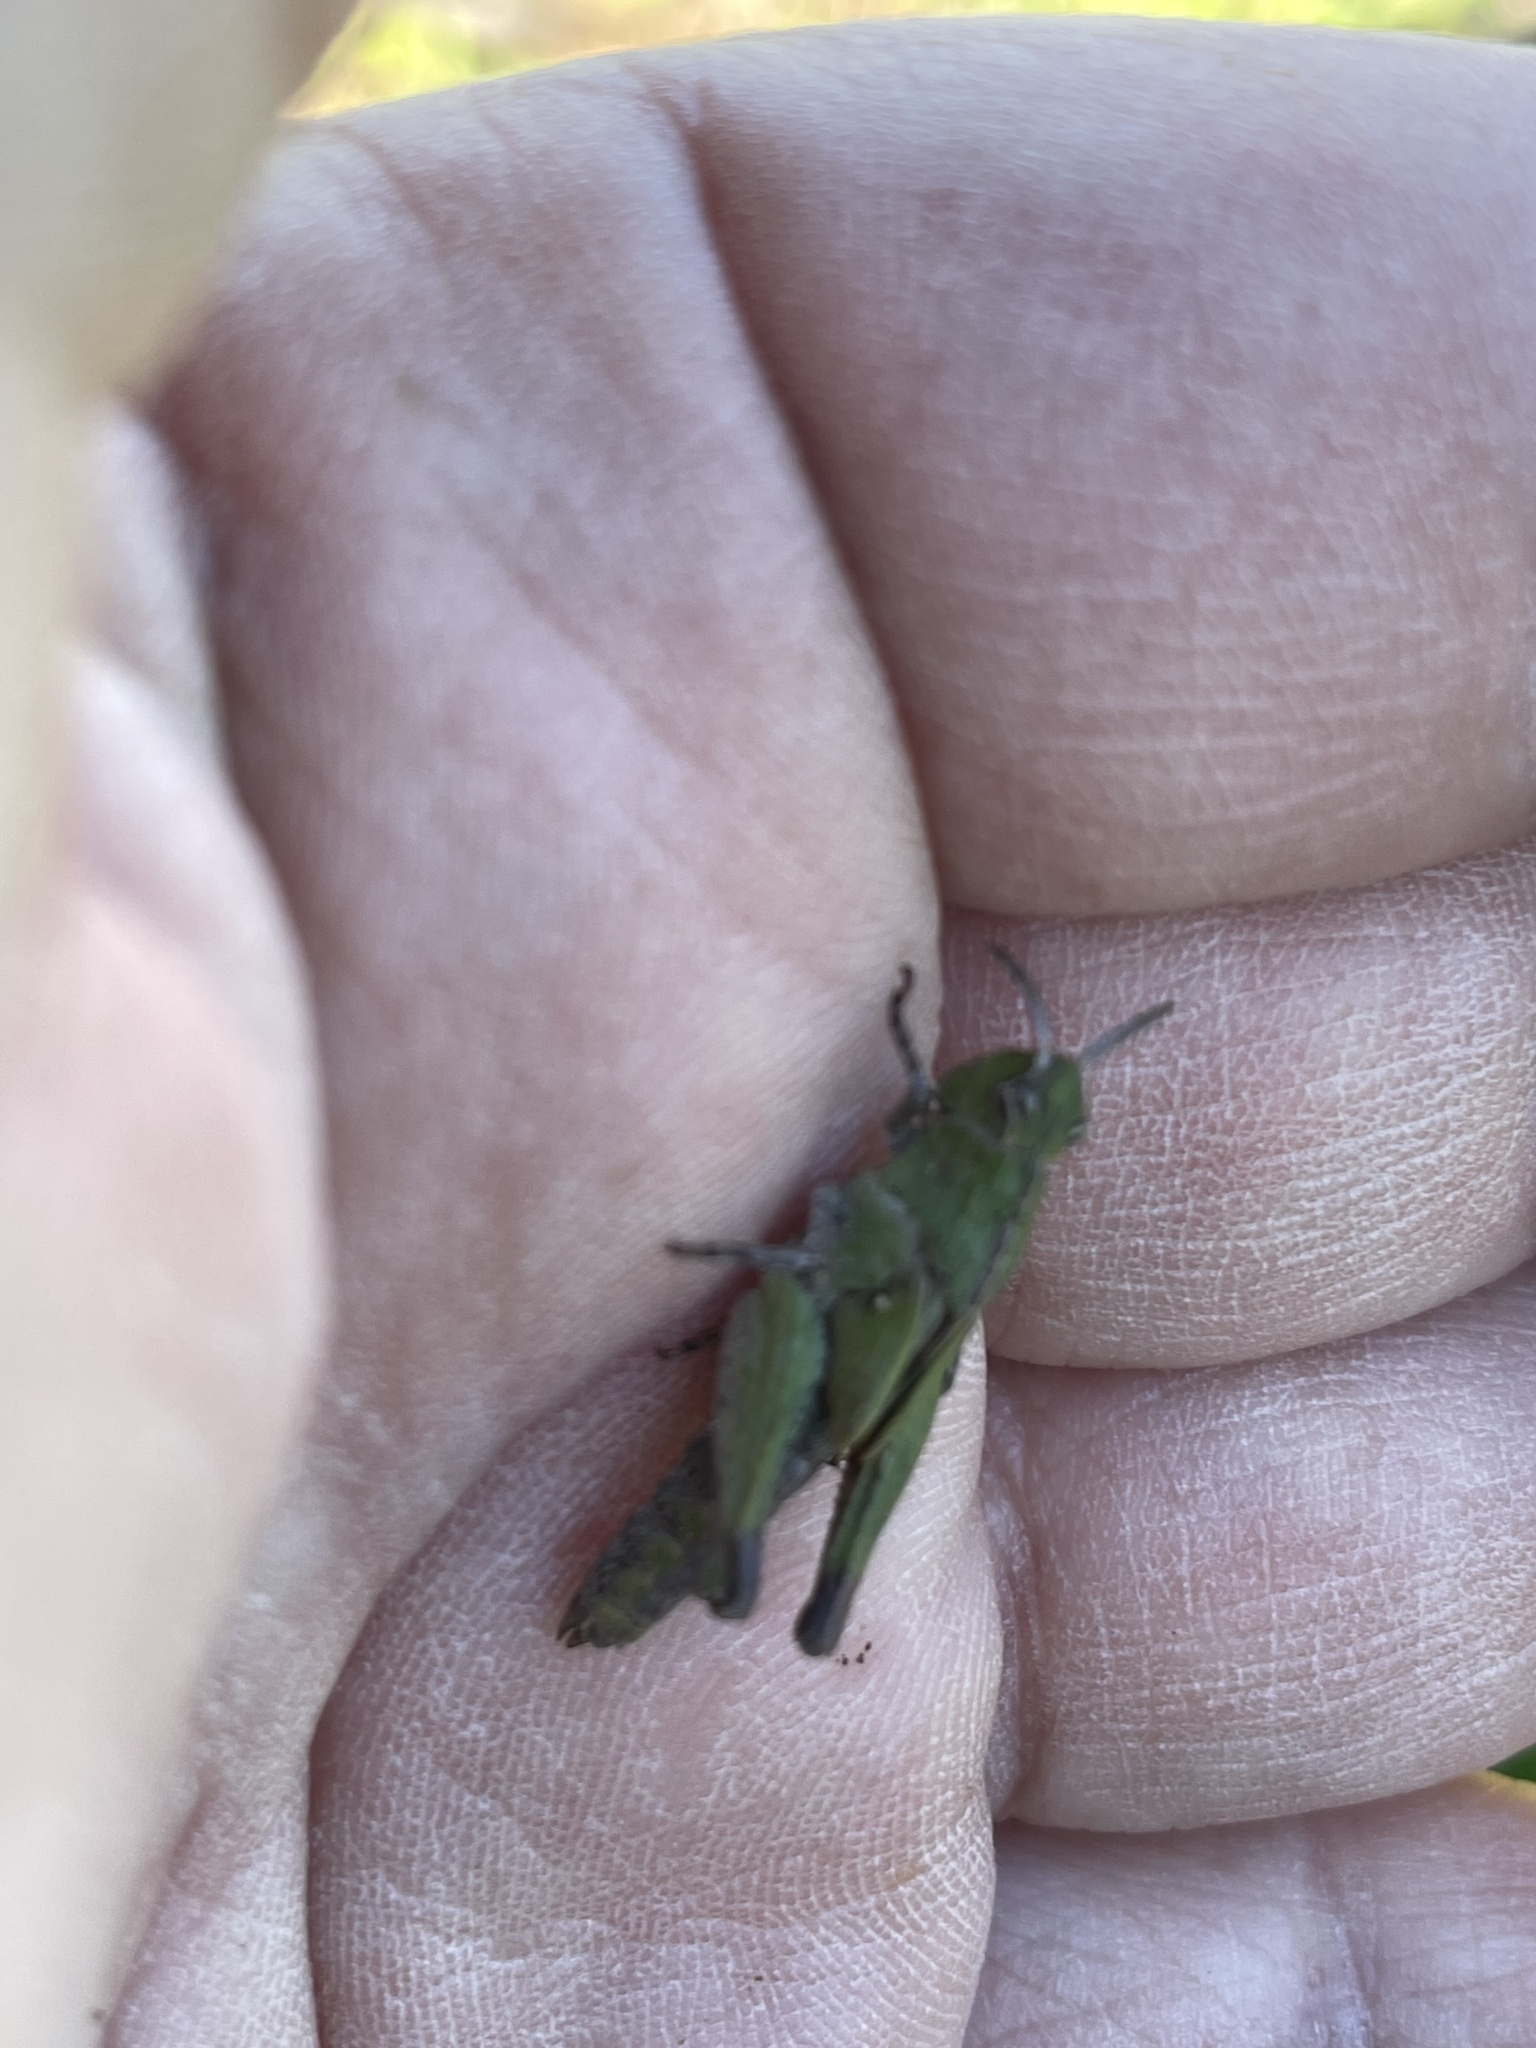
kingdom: Animalia
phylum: Arthropoda
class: Insecta
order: Orthoptera
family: Acrididae
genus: Chimarocephala
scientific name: Chimarocephala pacifica
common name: Painted meadow grasshopper
